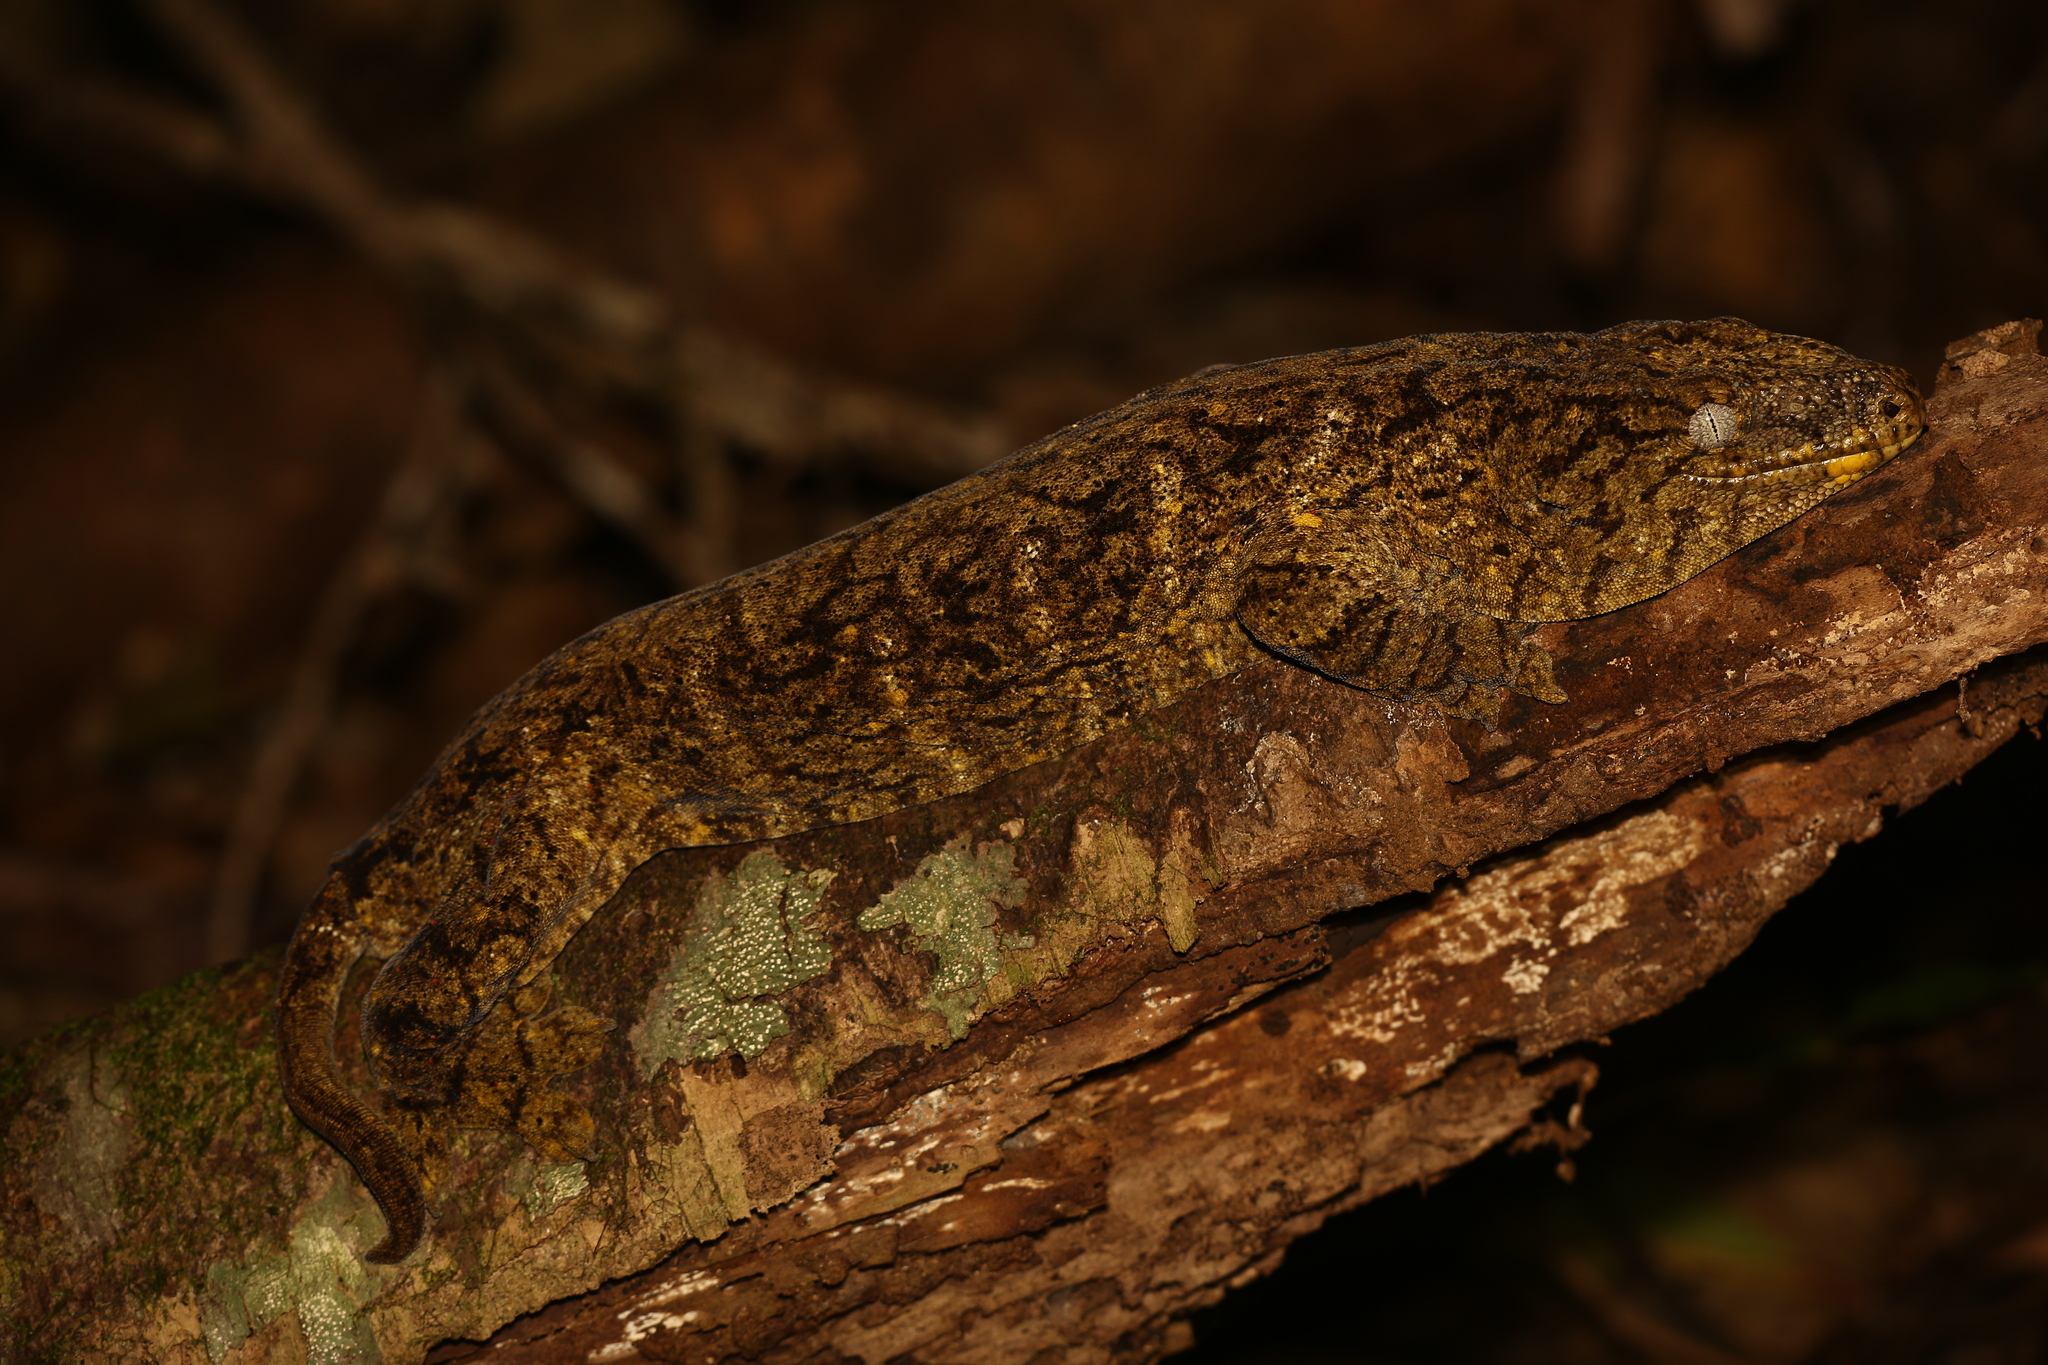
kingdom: Animalia
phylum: Chordata
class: Squamata
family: Diplodactylidae
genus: Rhacodactylus
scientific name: Rhacodactylus leachianus
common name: New caledonia giant gecko
